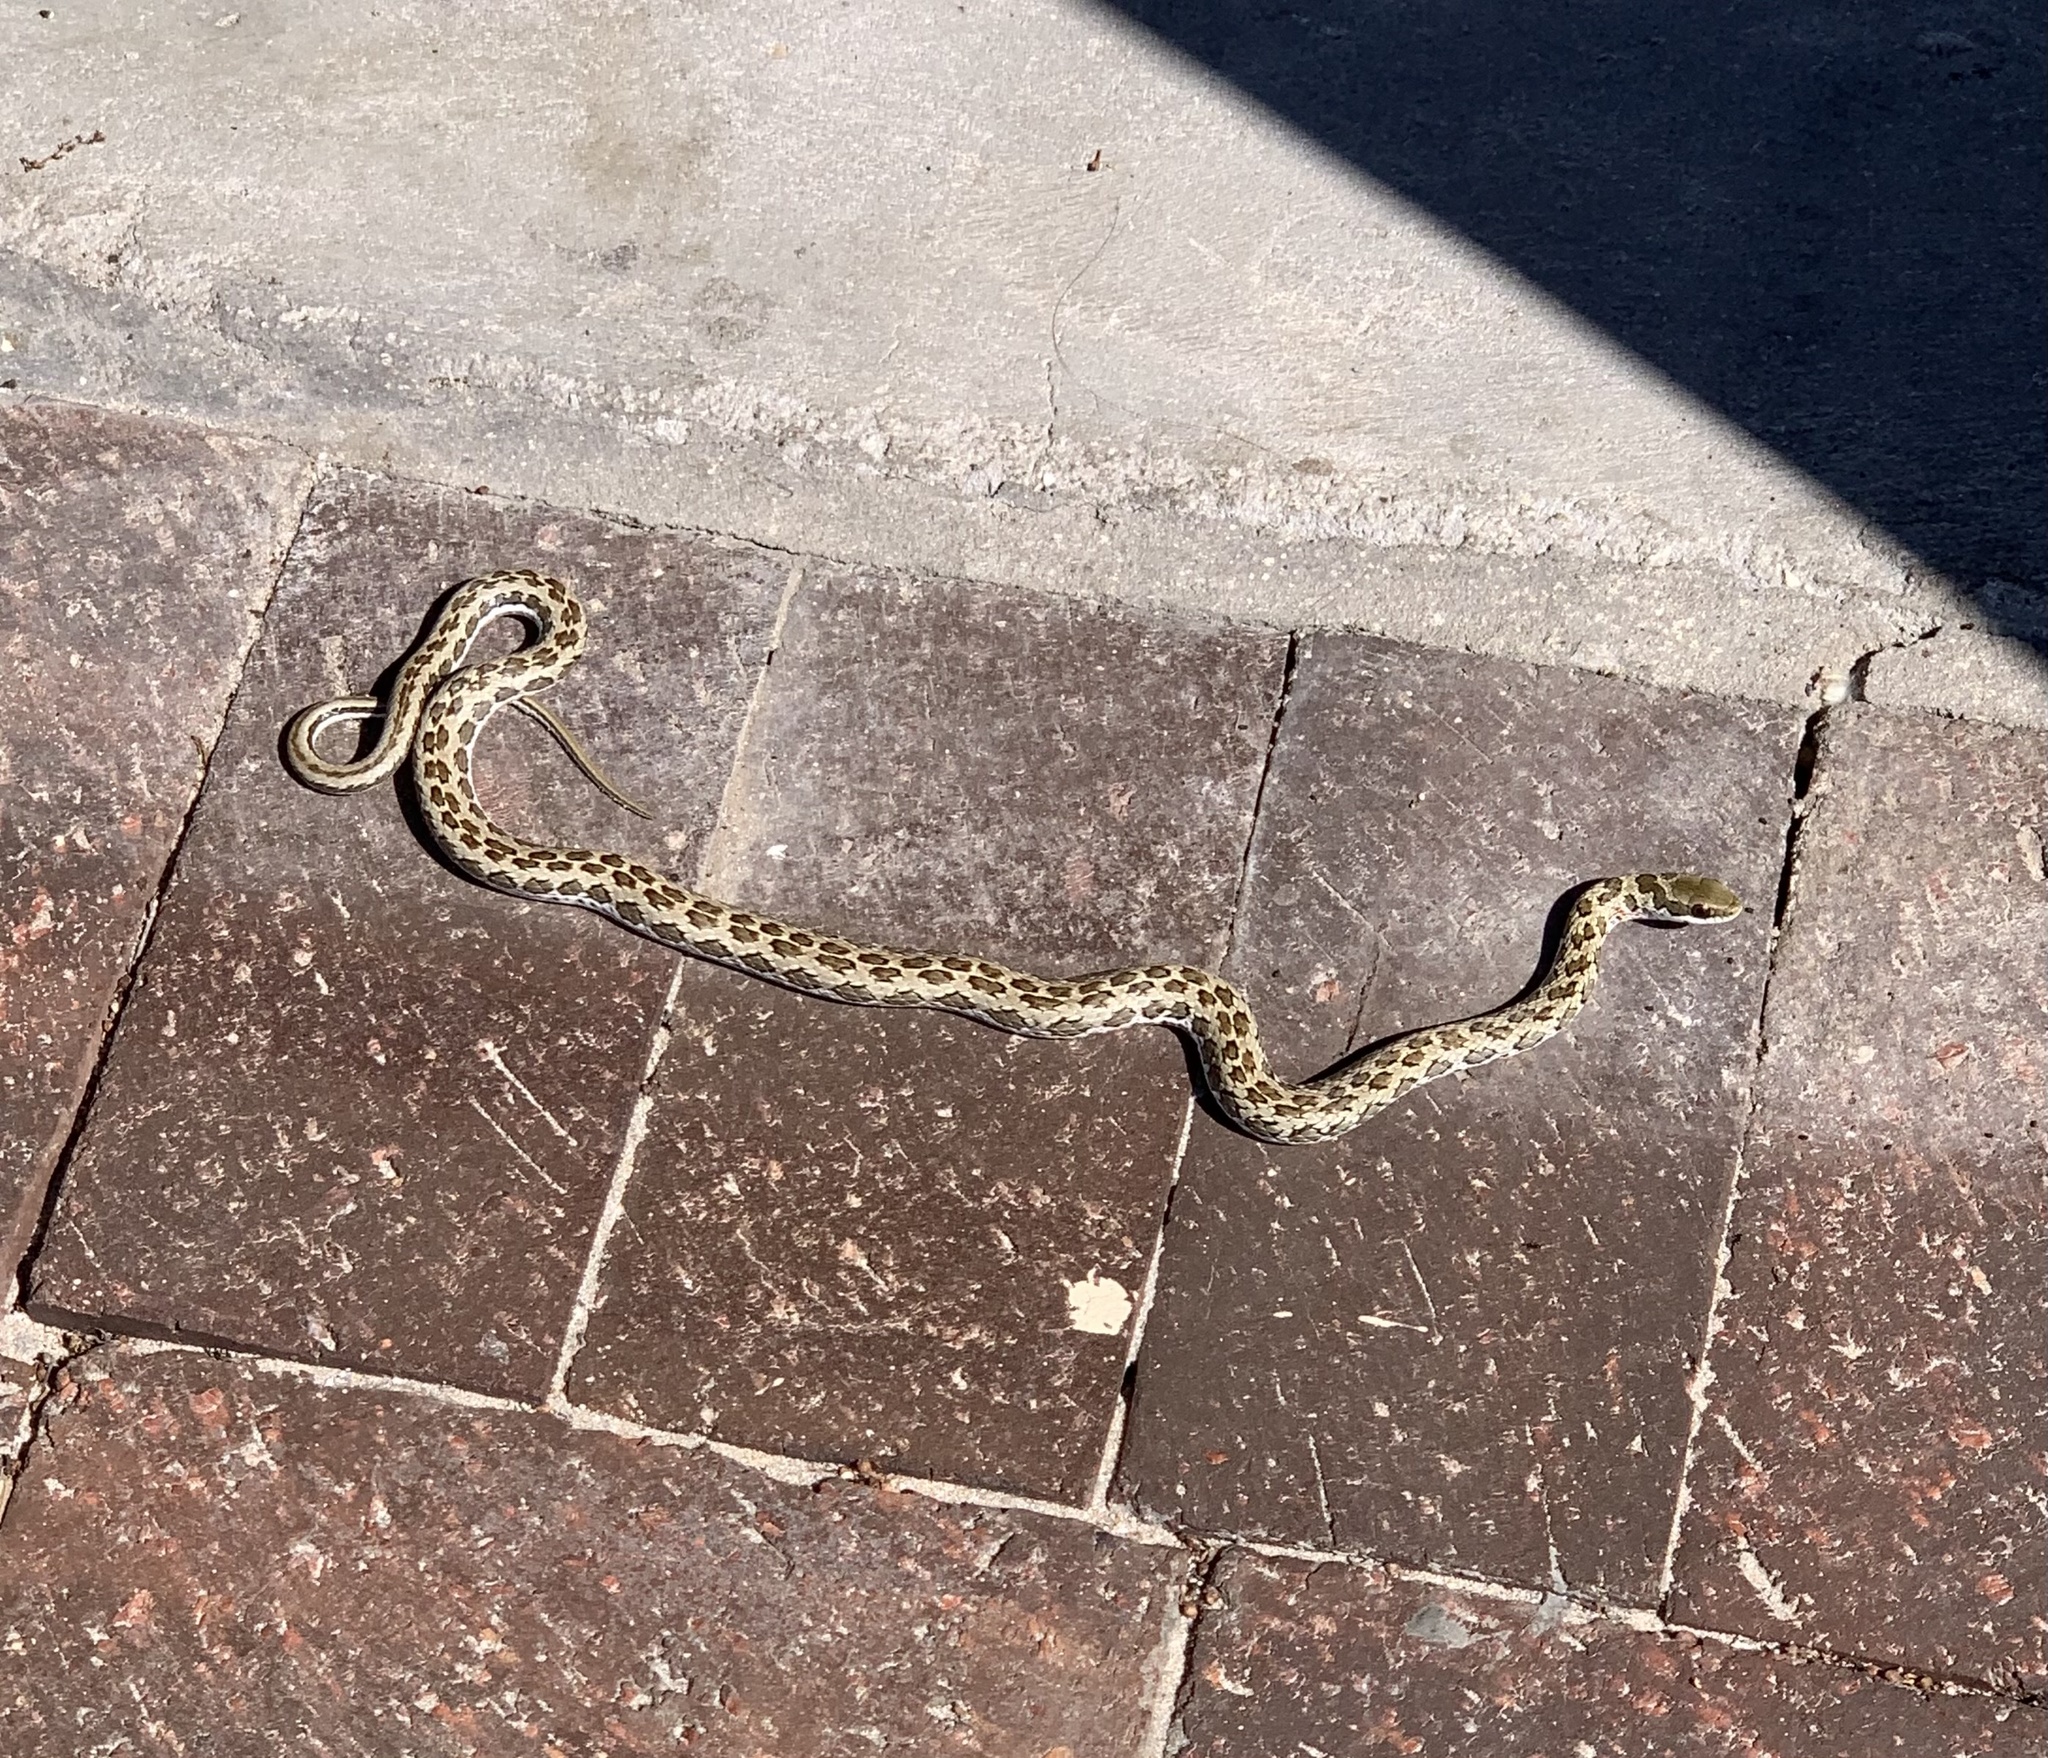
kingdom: Animalia
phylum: Chordata
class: Squamata
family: Psammophiidae
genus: Psammophylax
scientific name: Psammophylax rhombeatus
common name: Rhombic skaapsteker
